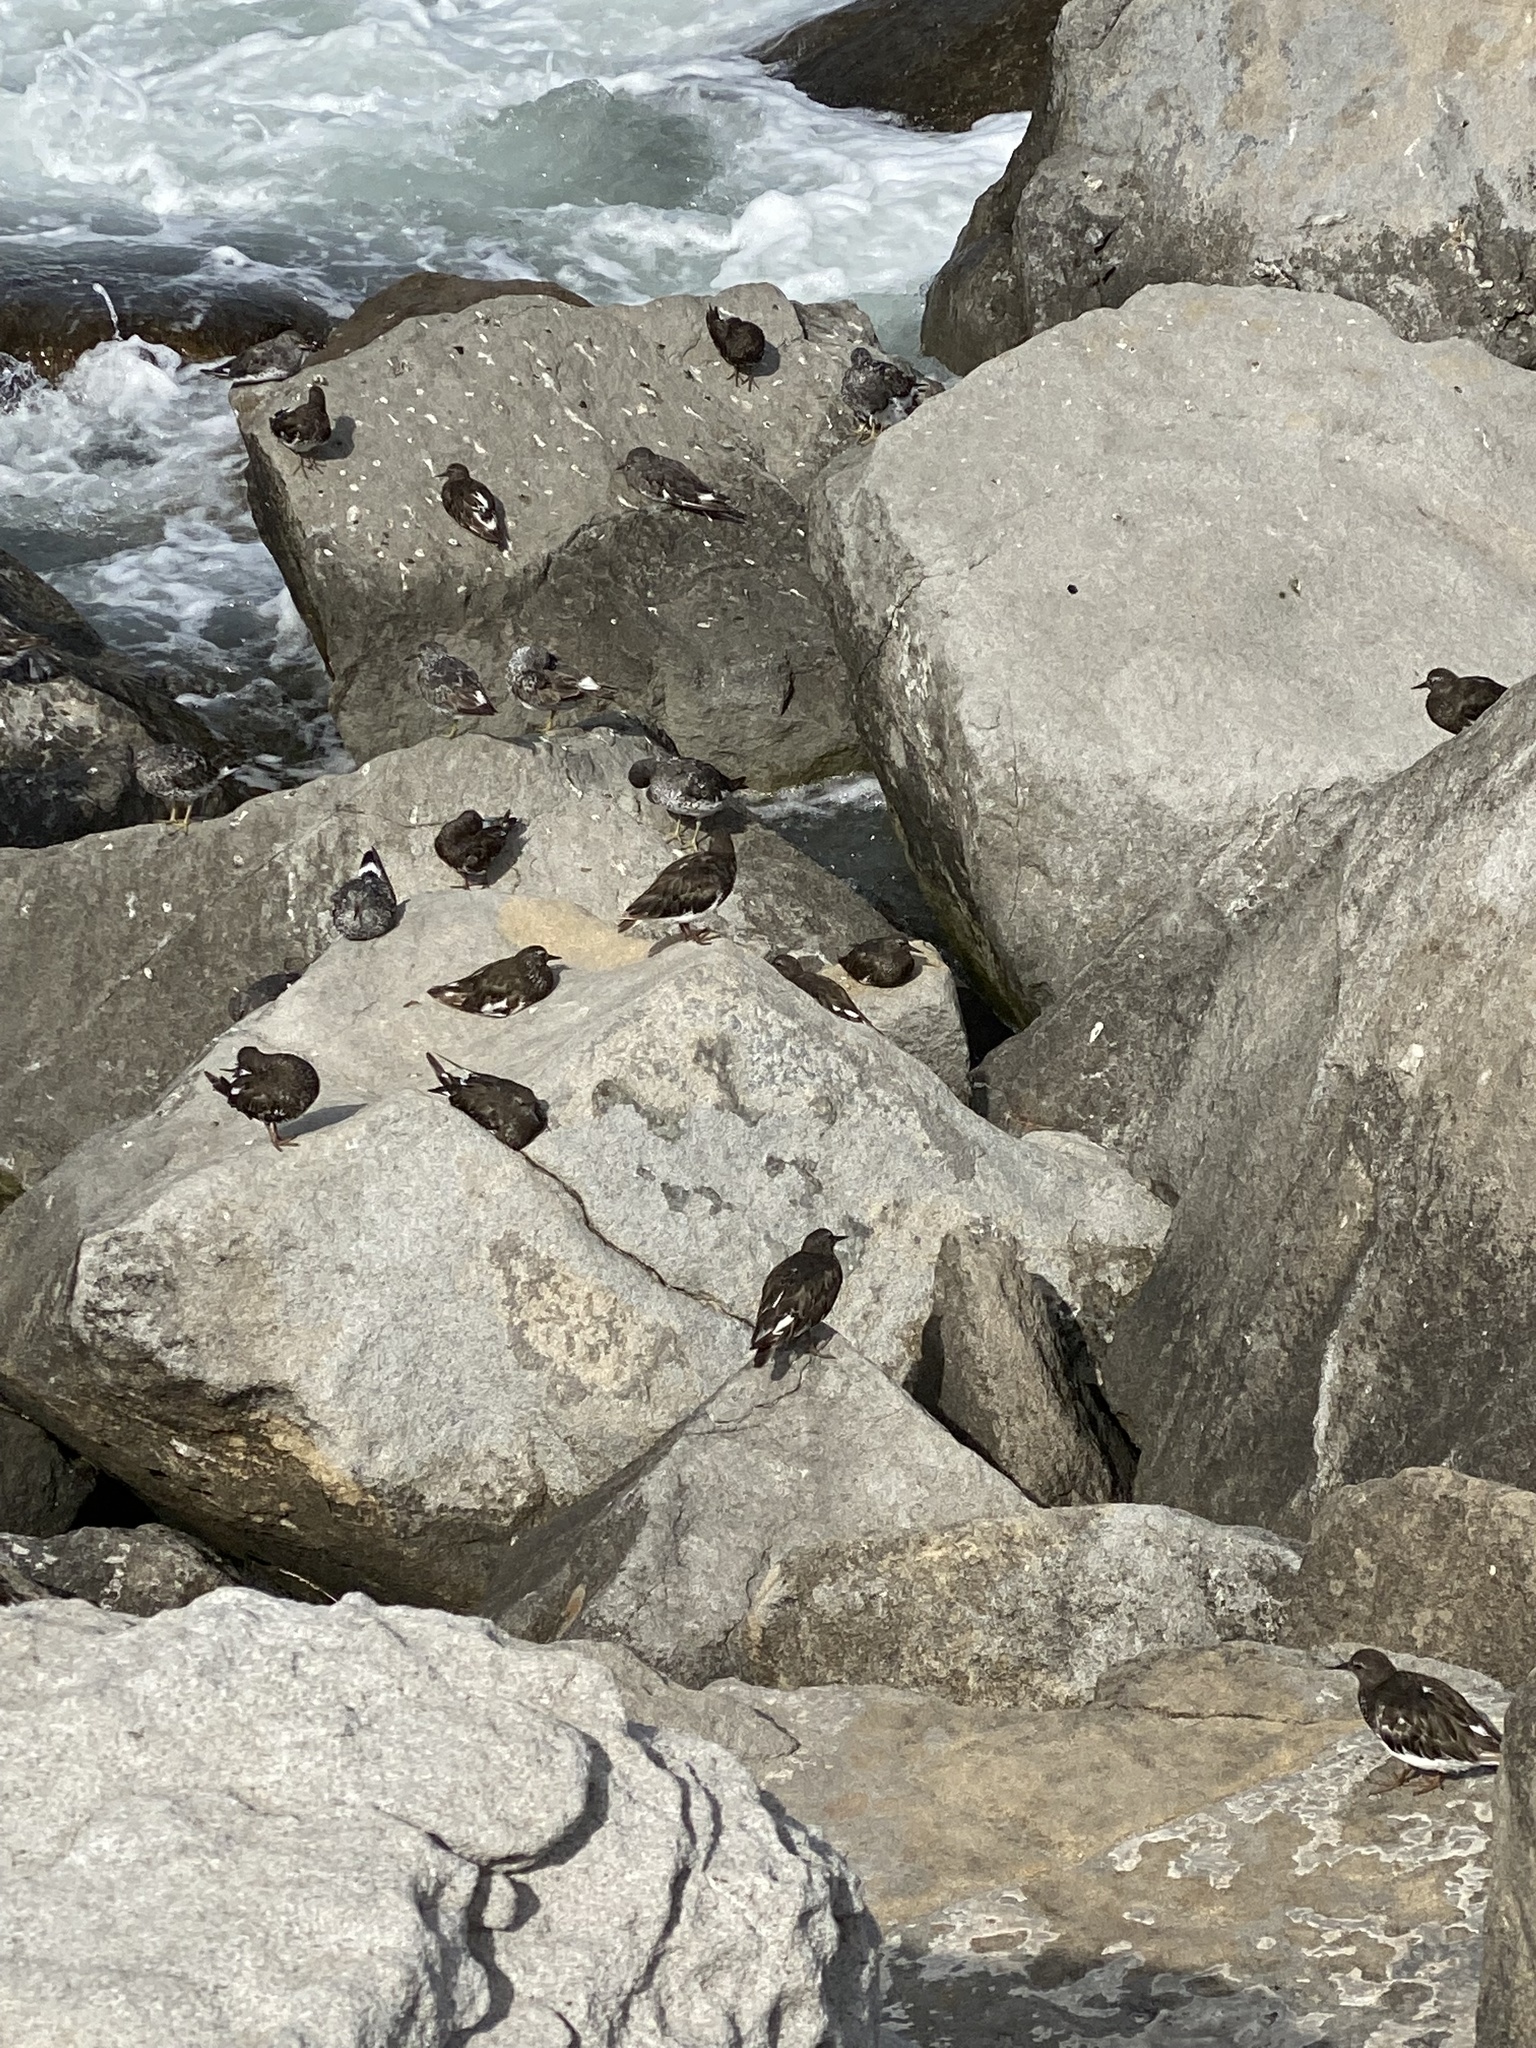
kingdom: Animalia
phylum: Chordata
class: Aves
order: Charadriiformes
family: Scolopacidae
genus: Arenaria
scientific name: Arenaria melanocephala
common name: Black turnstone
